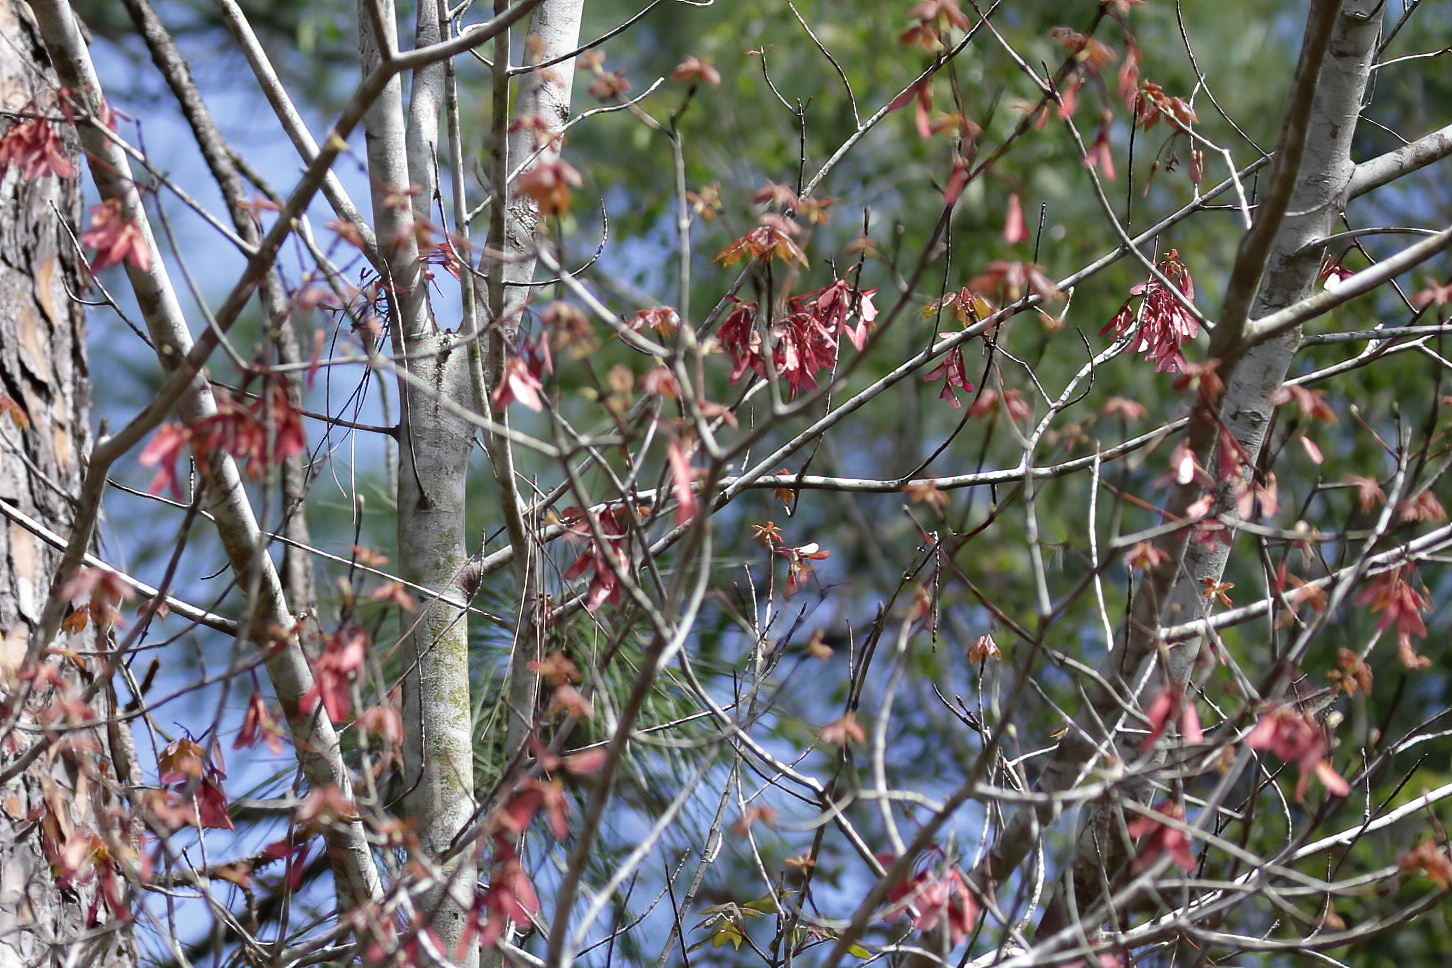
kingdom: Plantae
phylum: Tracheophyta
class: Magnoliopsida
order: Sapindales
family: Sapindaceae
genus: Acer
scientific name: Acer rubrum
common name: Red maple
